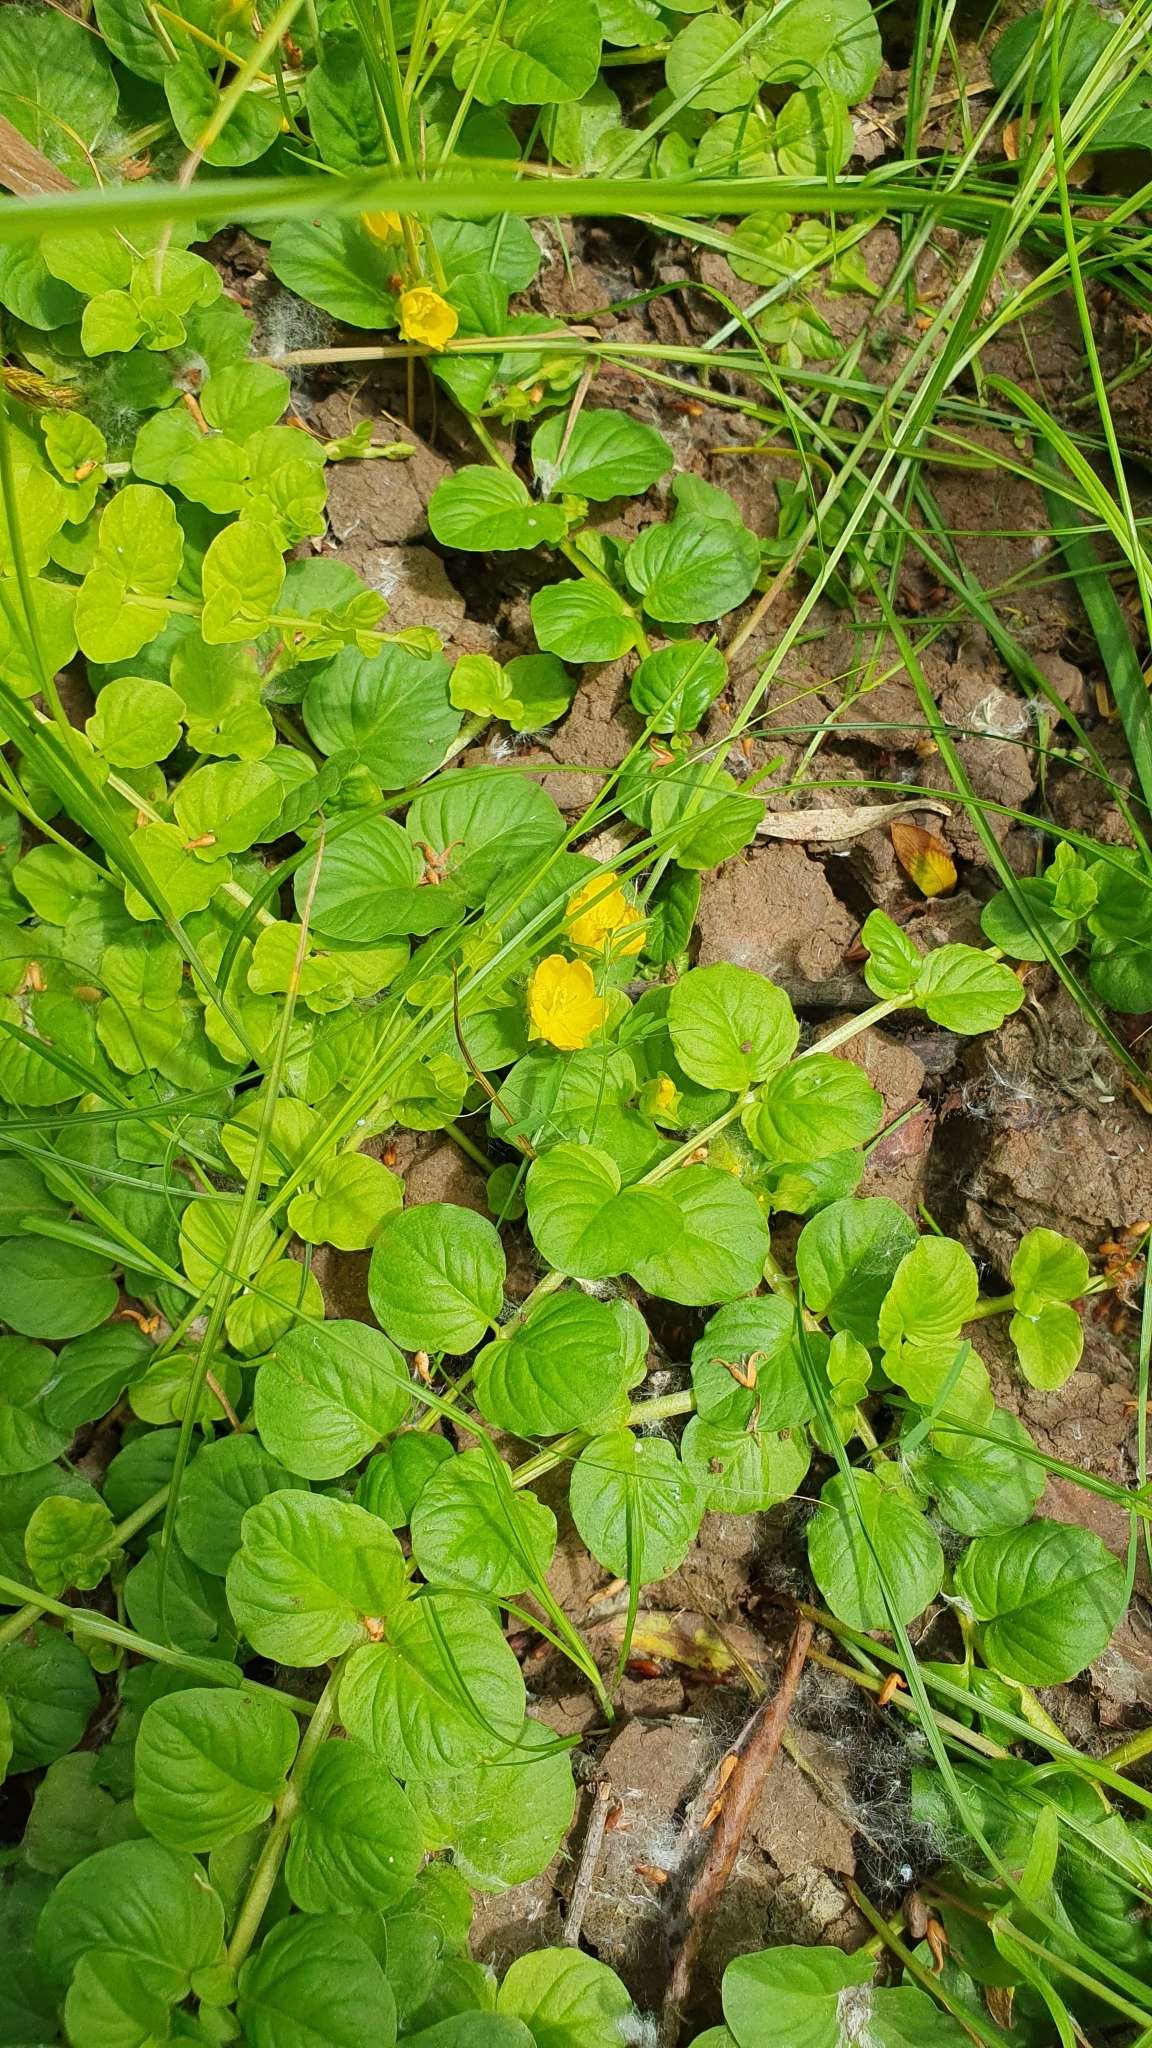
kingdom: Plantae
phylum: Tracheophyta
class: Magnoliopsida
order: Ericales
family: Primulaceae
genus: Lysimachia
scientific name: Lysimachia nummularia
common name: Moneywort
